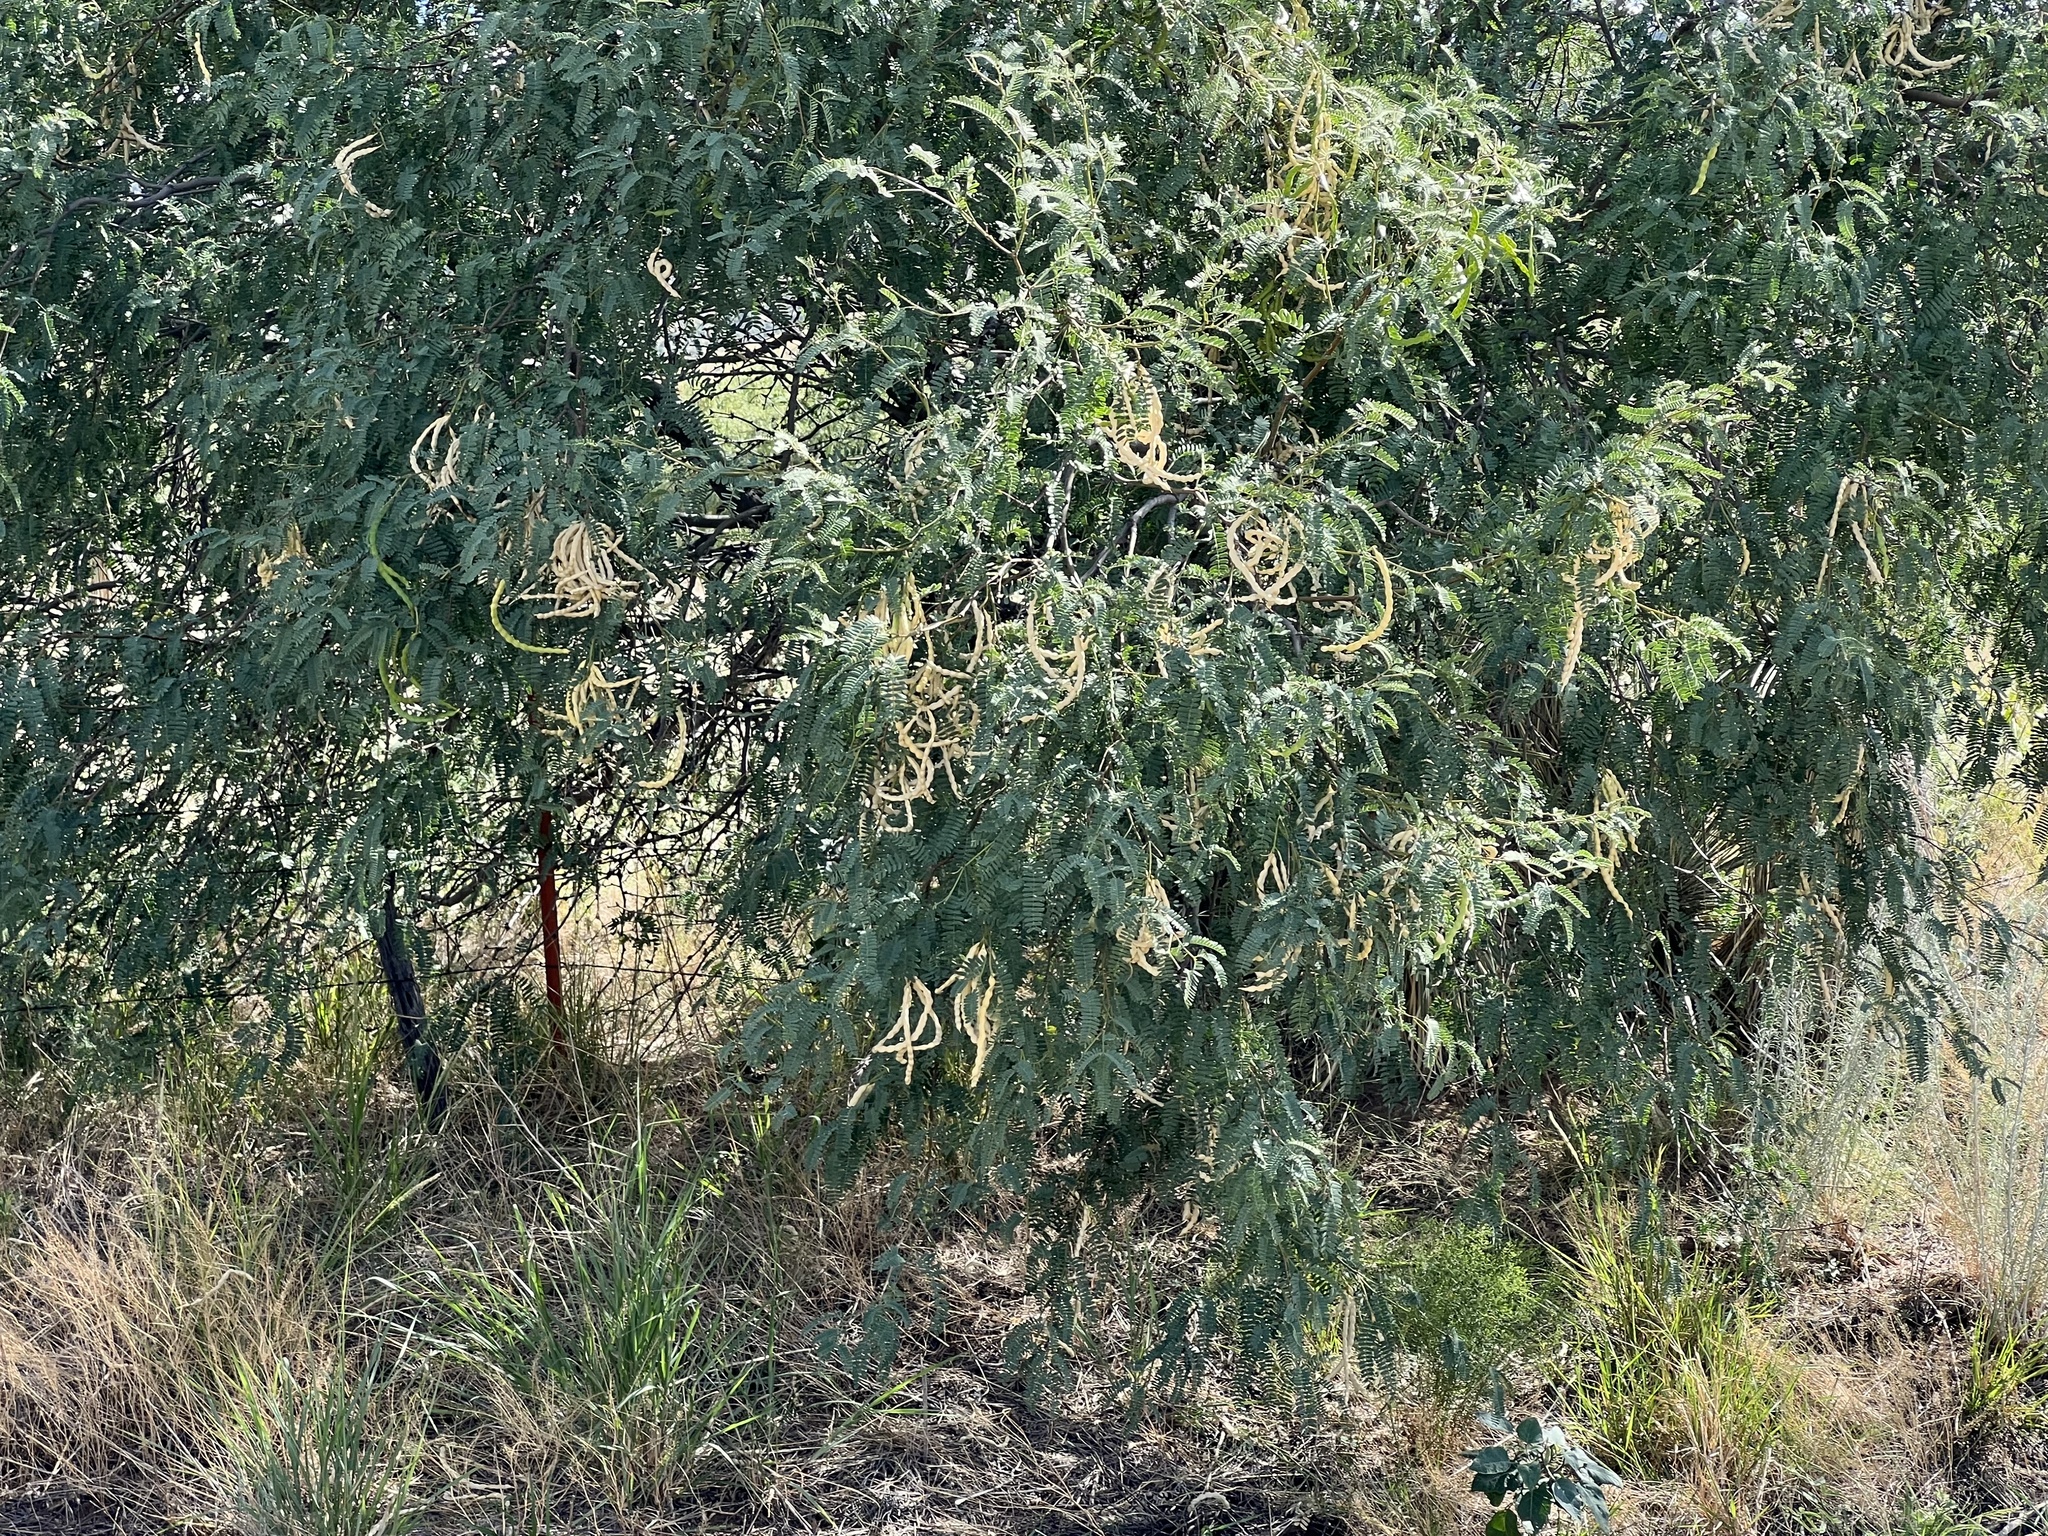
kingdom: Plantae
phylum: Tracheophyta
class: Magnoliopsida
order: Fabales
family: Fabaceae
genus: Prosopis
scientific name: Prosopis velutina
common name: Velvet mesquite
